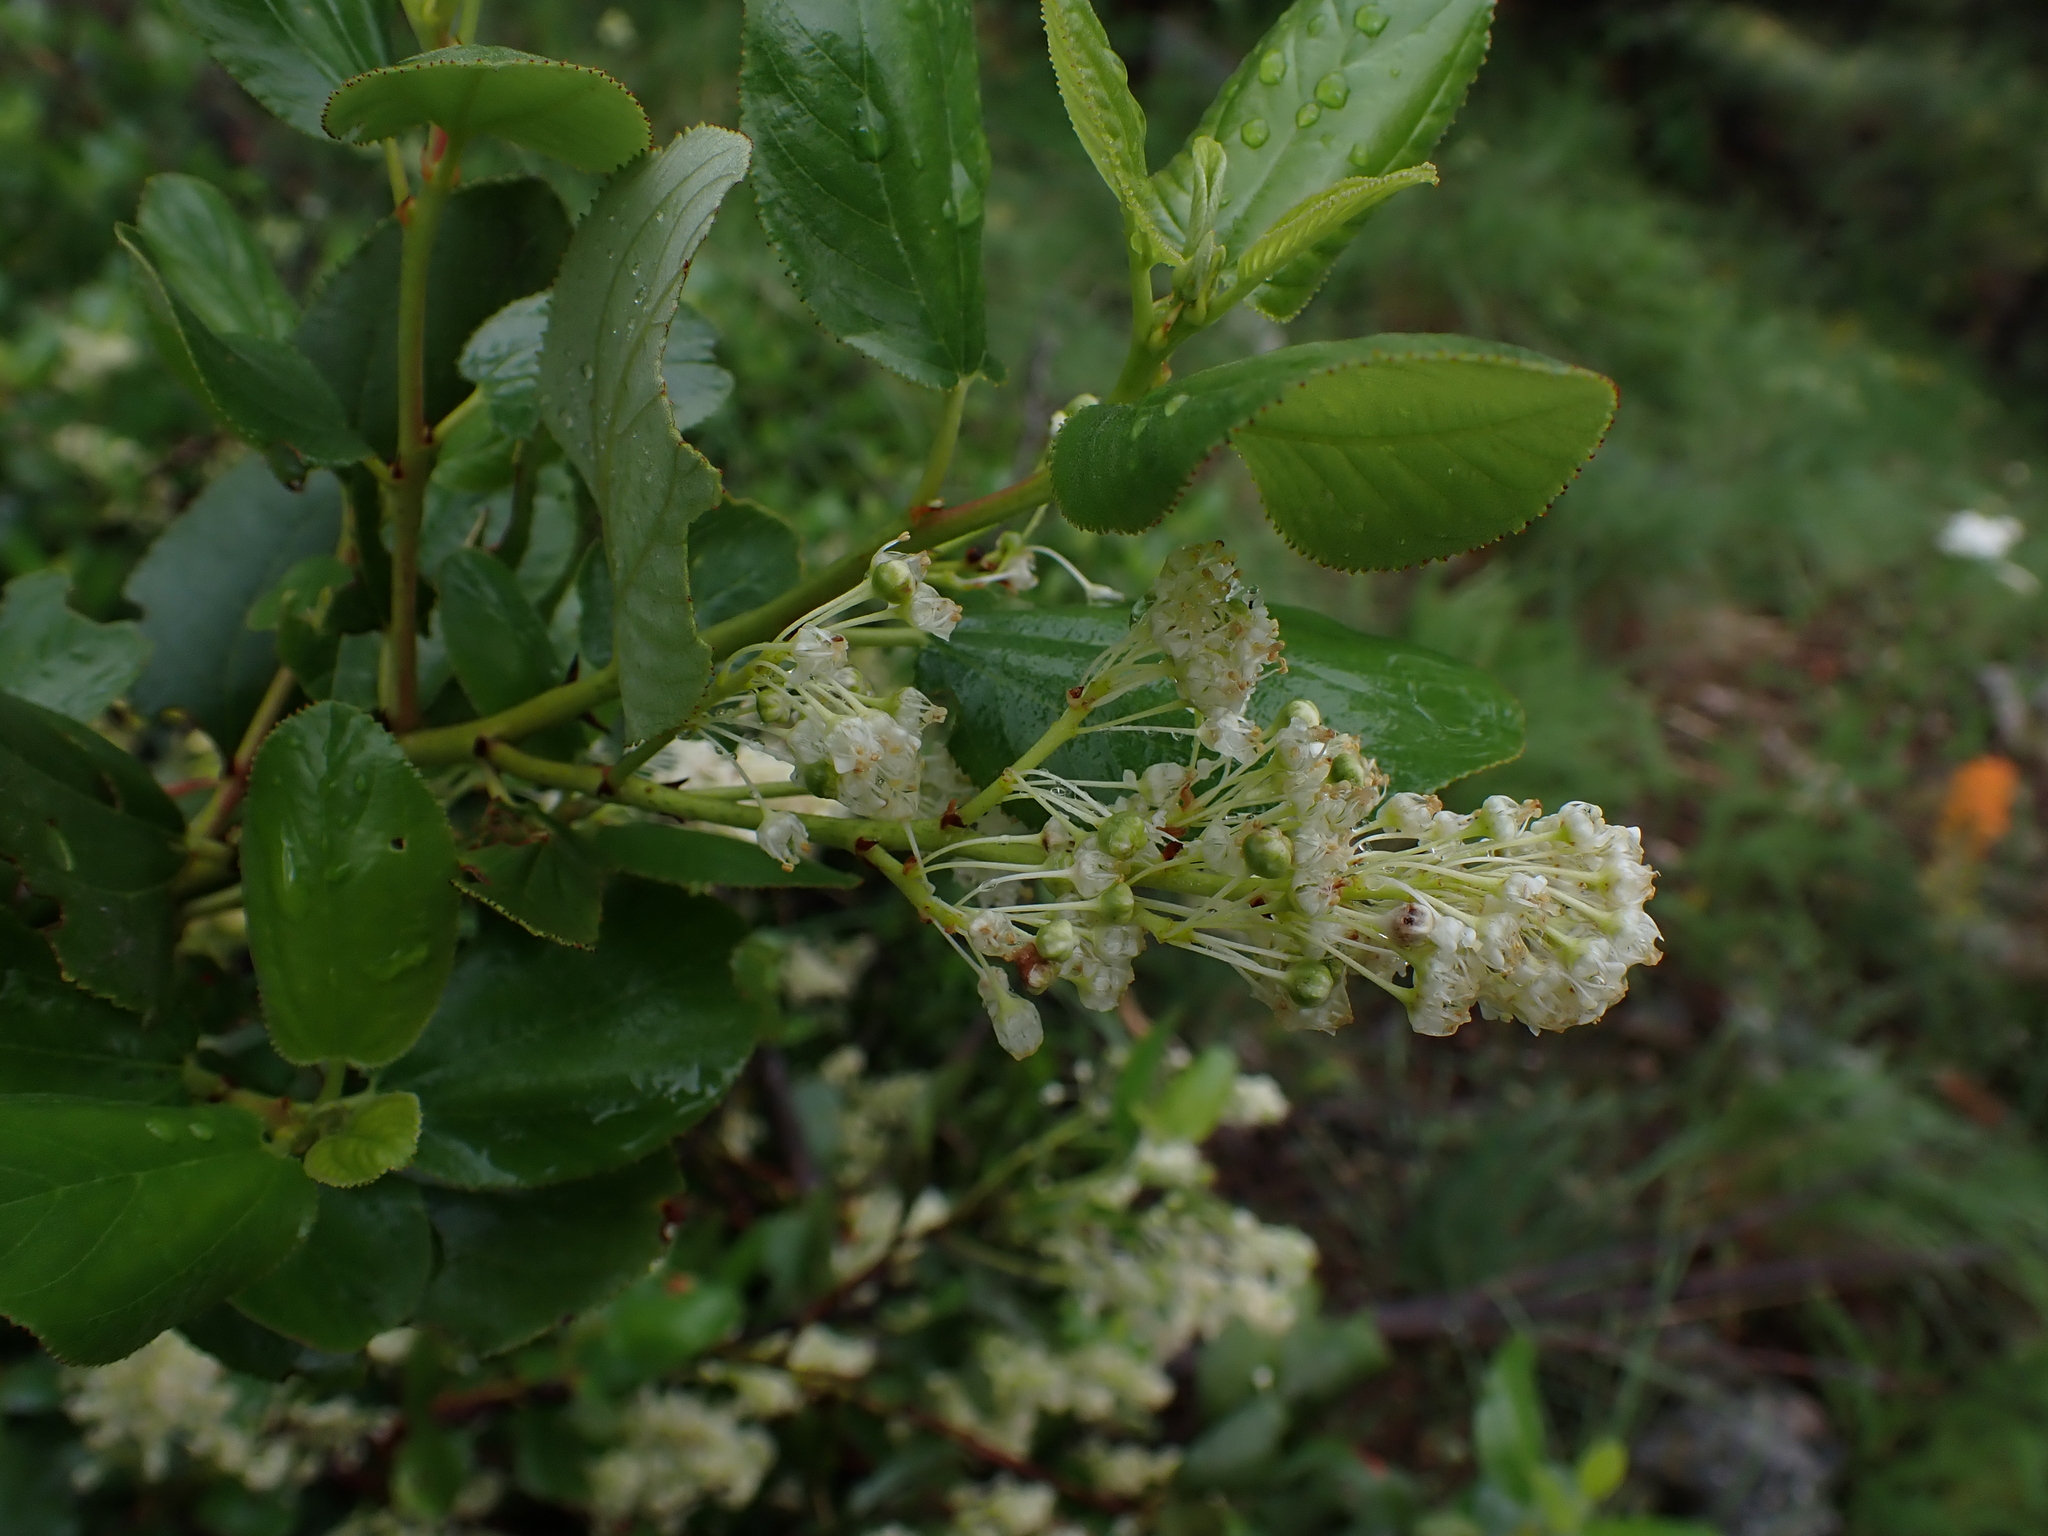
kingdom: Plantae
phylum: Tracheophyta
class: Magnoliopsida
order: Rosales
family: Rhamnaceae
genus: Ceanothus
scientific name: Ceanothus velutinus
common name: Snowbrush
